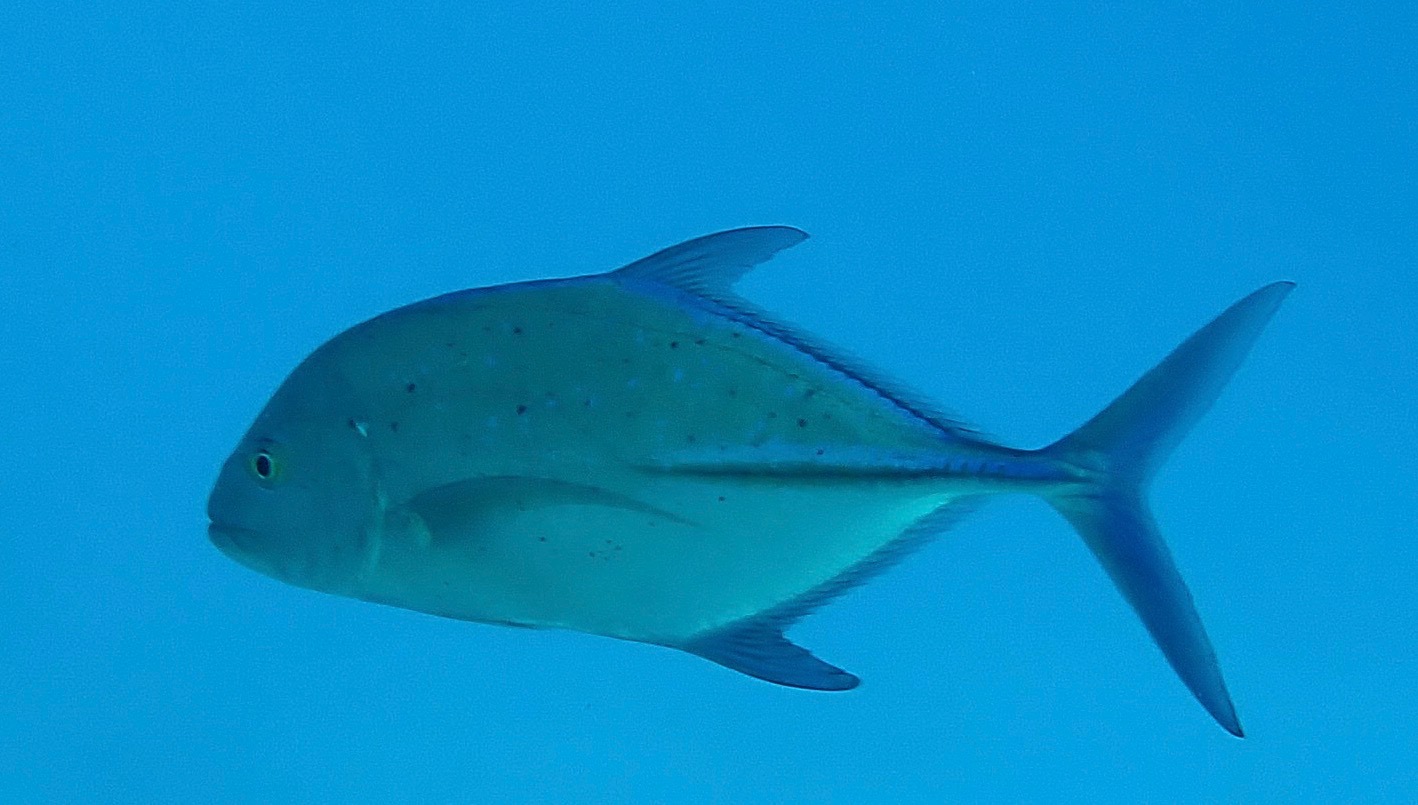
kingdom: Animalia
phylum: Chordata
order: Perciformes
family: Carangidae
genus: Caranx
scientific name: Caranx melampygus
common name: Bluefin trevally
